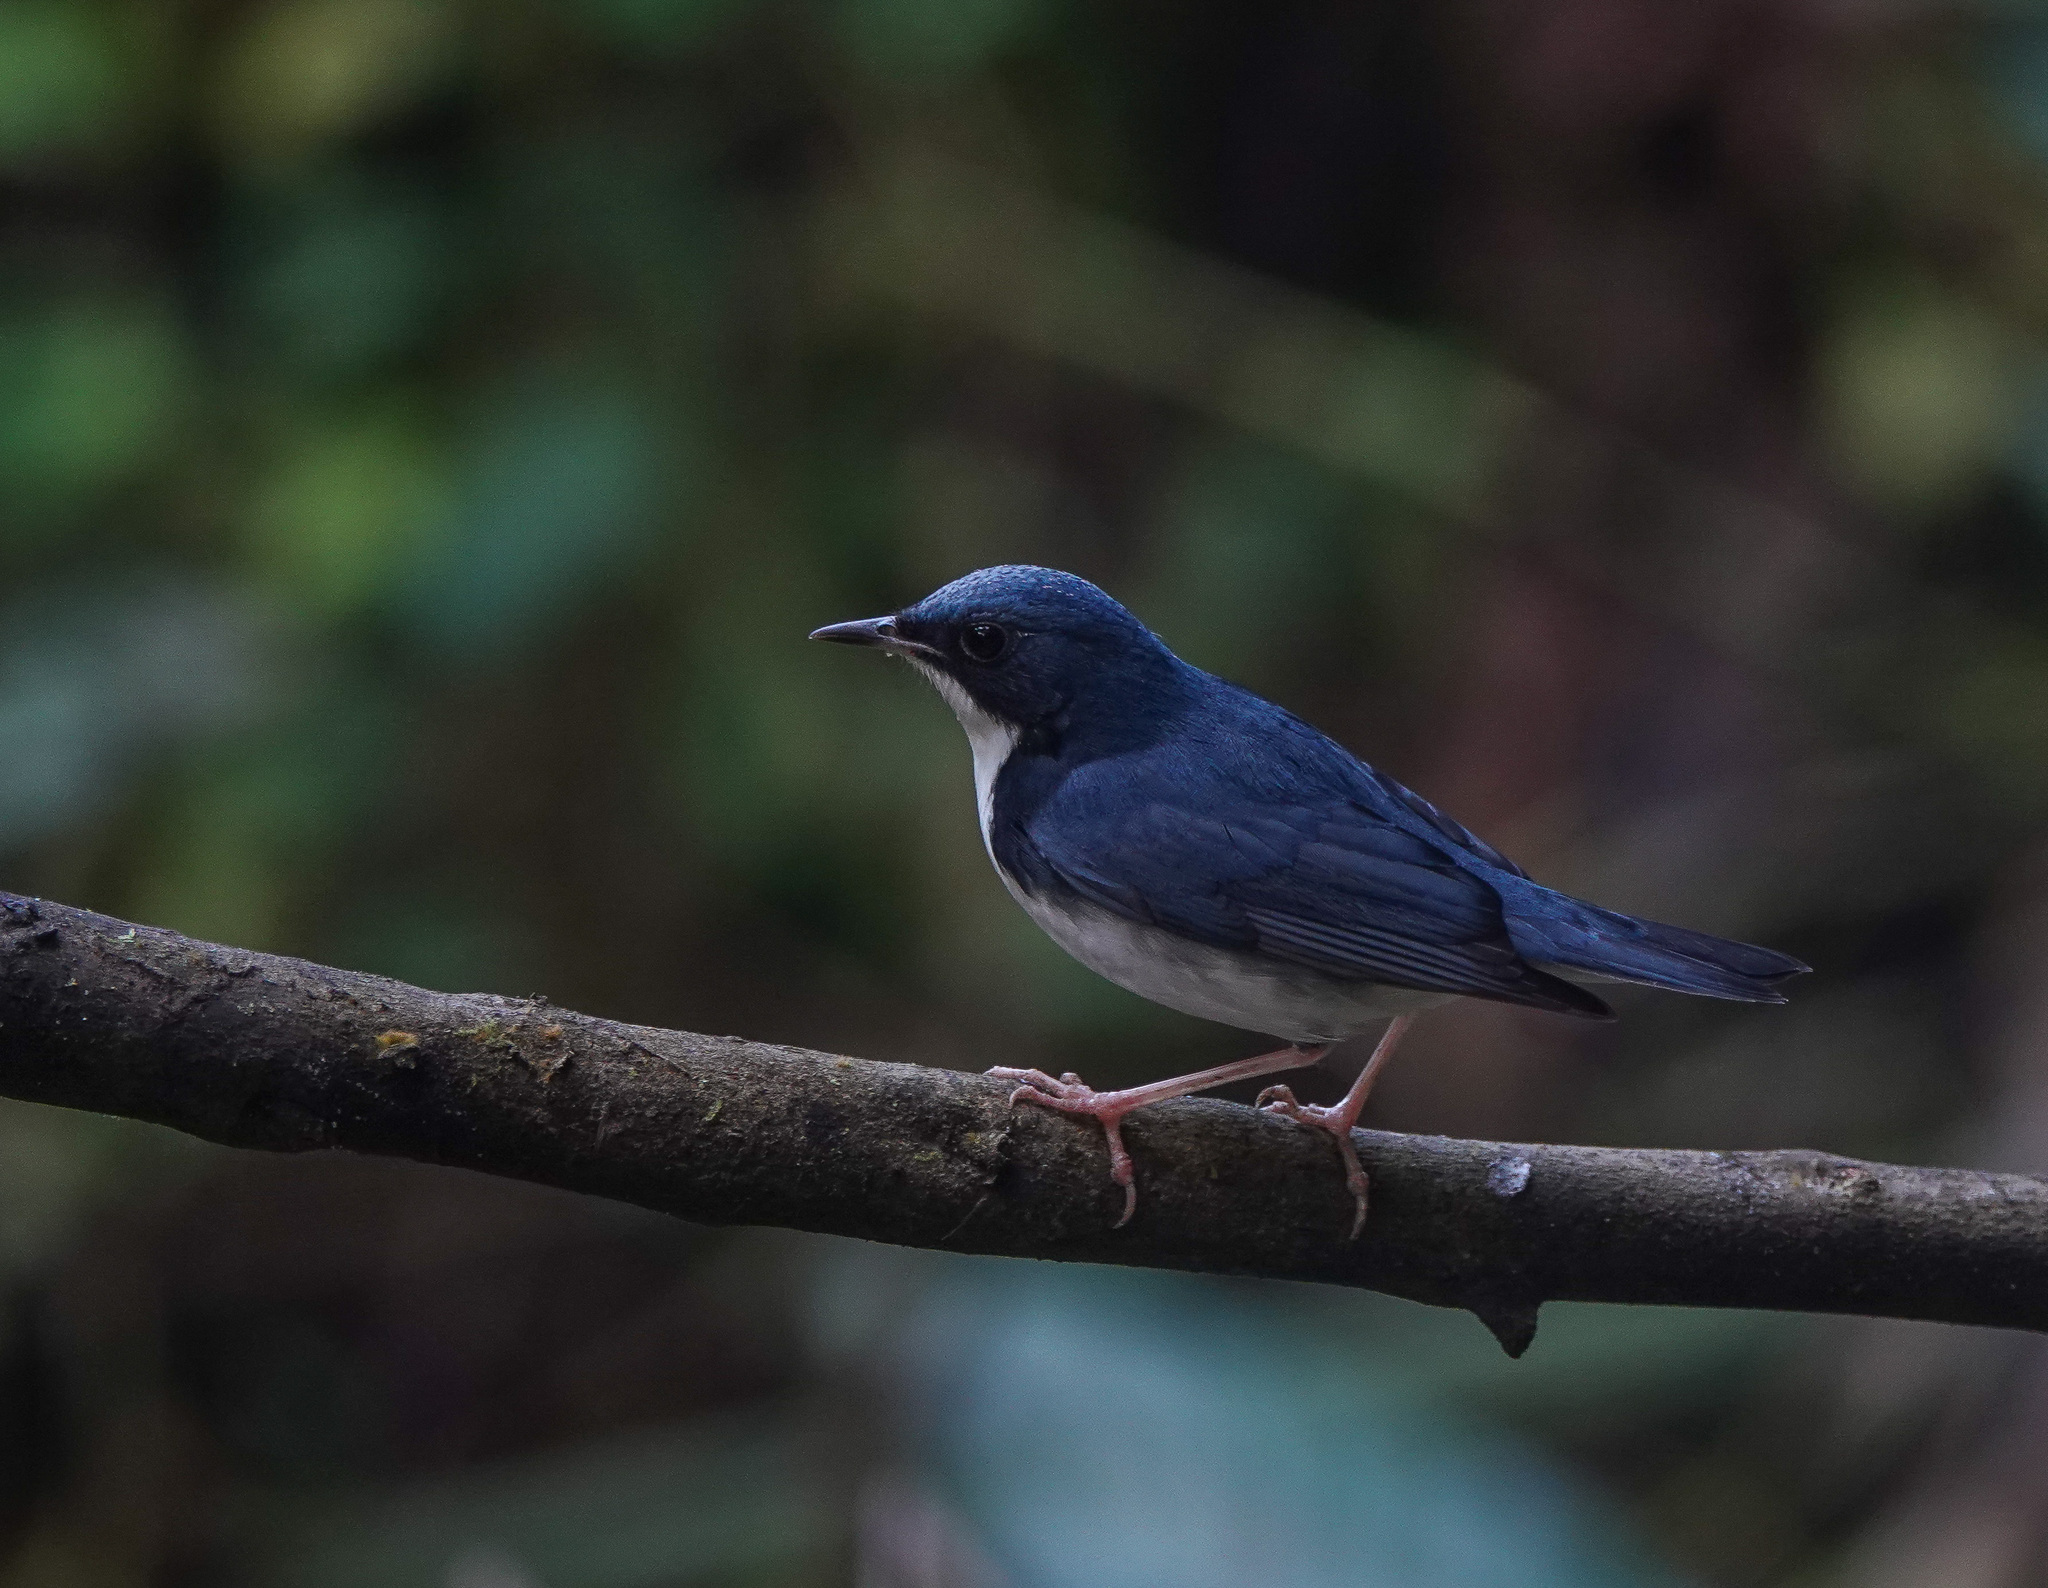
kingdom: Animalia
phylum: Chordata
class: Aves
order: Passeriformes
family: Muscicapidae
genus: Luscinia
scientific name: Luscinia cyane
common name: Siberian blue robin
